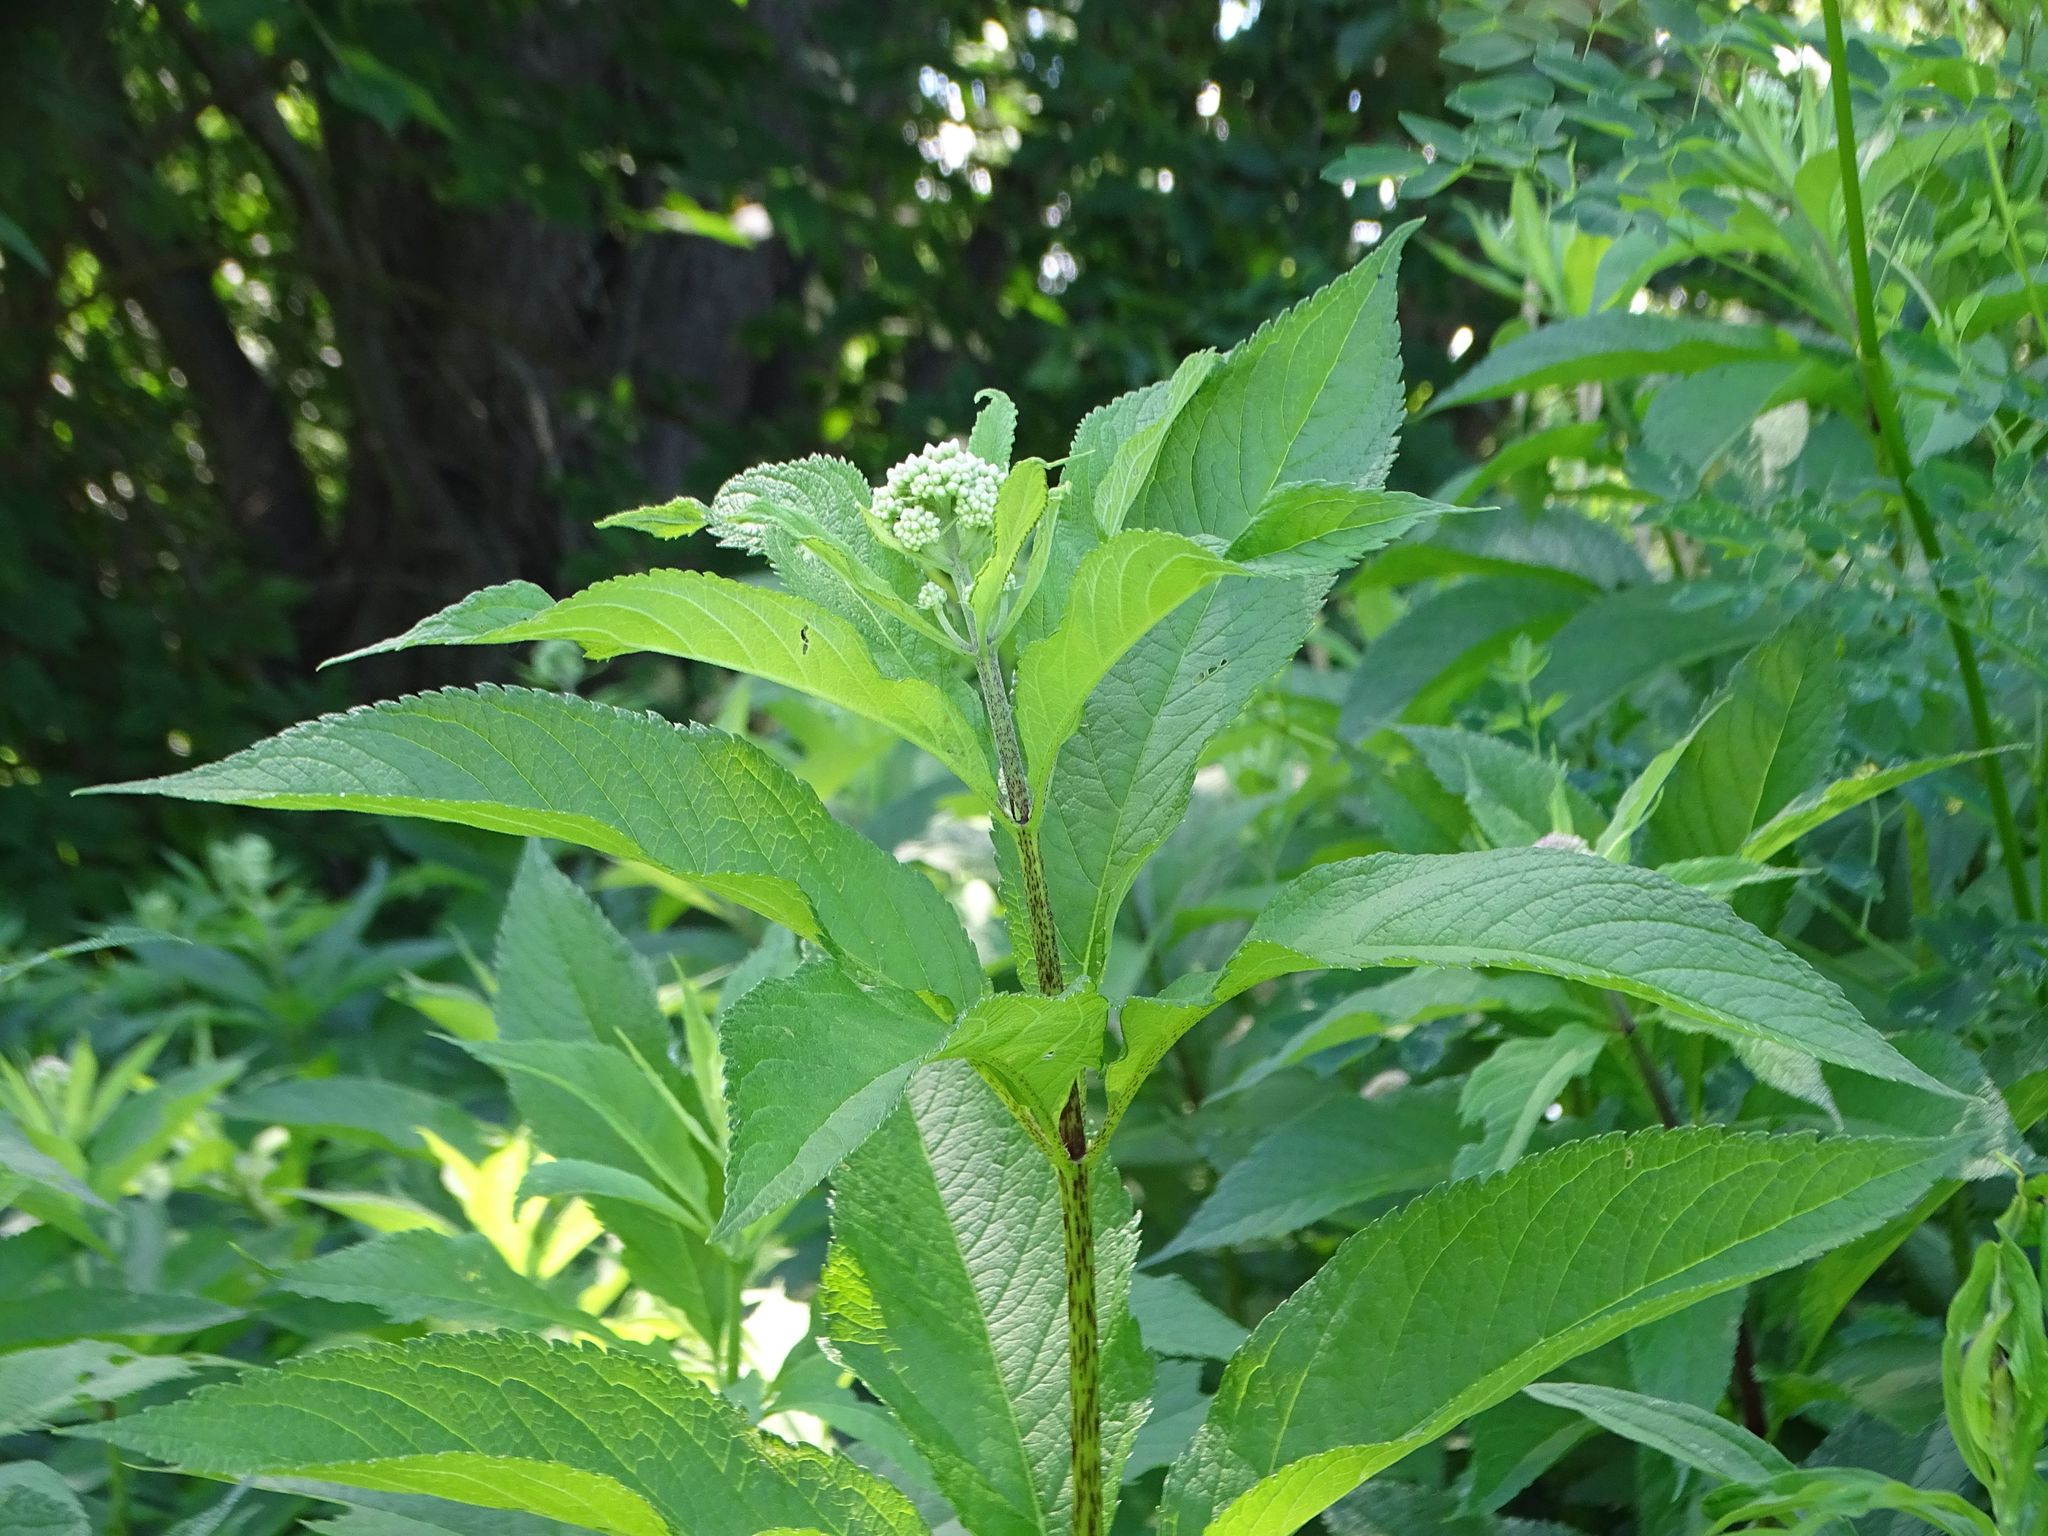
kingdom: Plantae
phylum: Tracheophyta
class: Magnoliopsida
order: Asterales
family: Asteraceae
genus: Eutrochium
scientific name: Eutrochium maculatum
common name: Spotted joe pye weed
